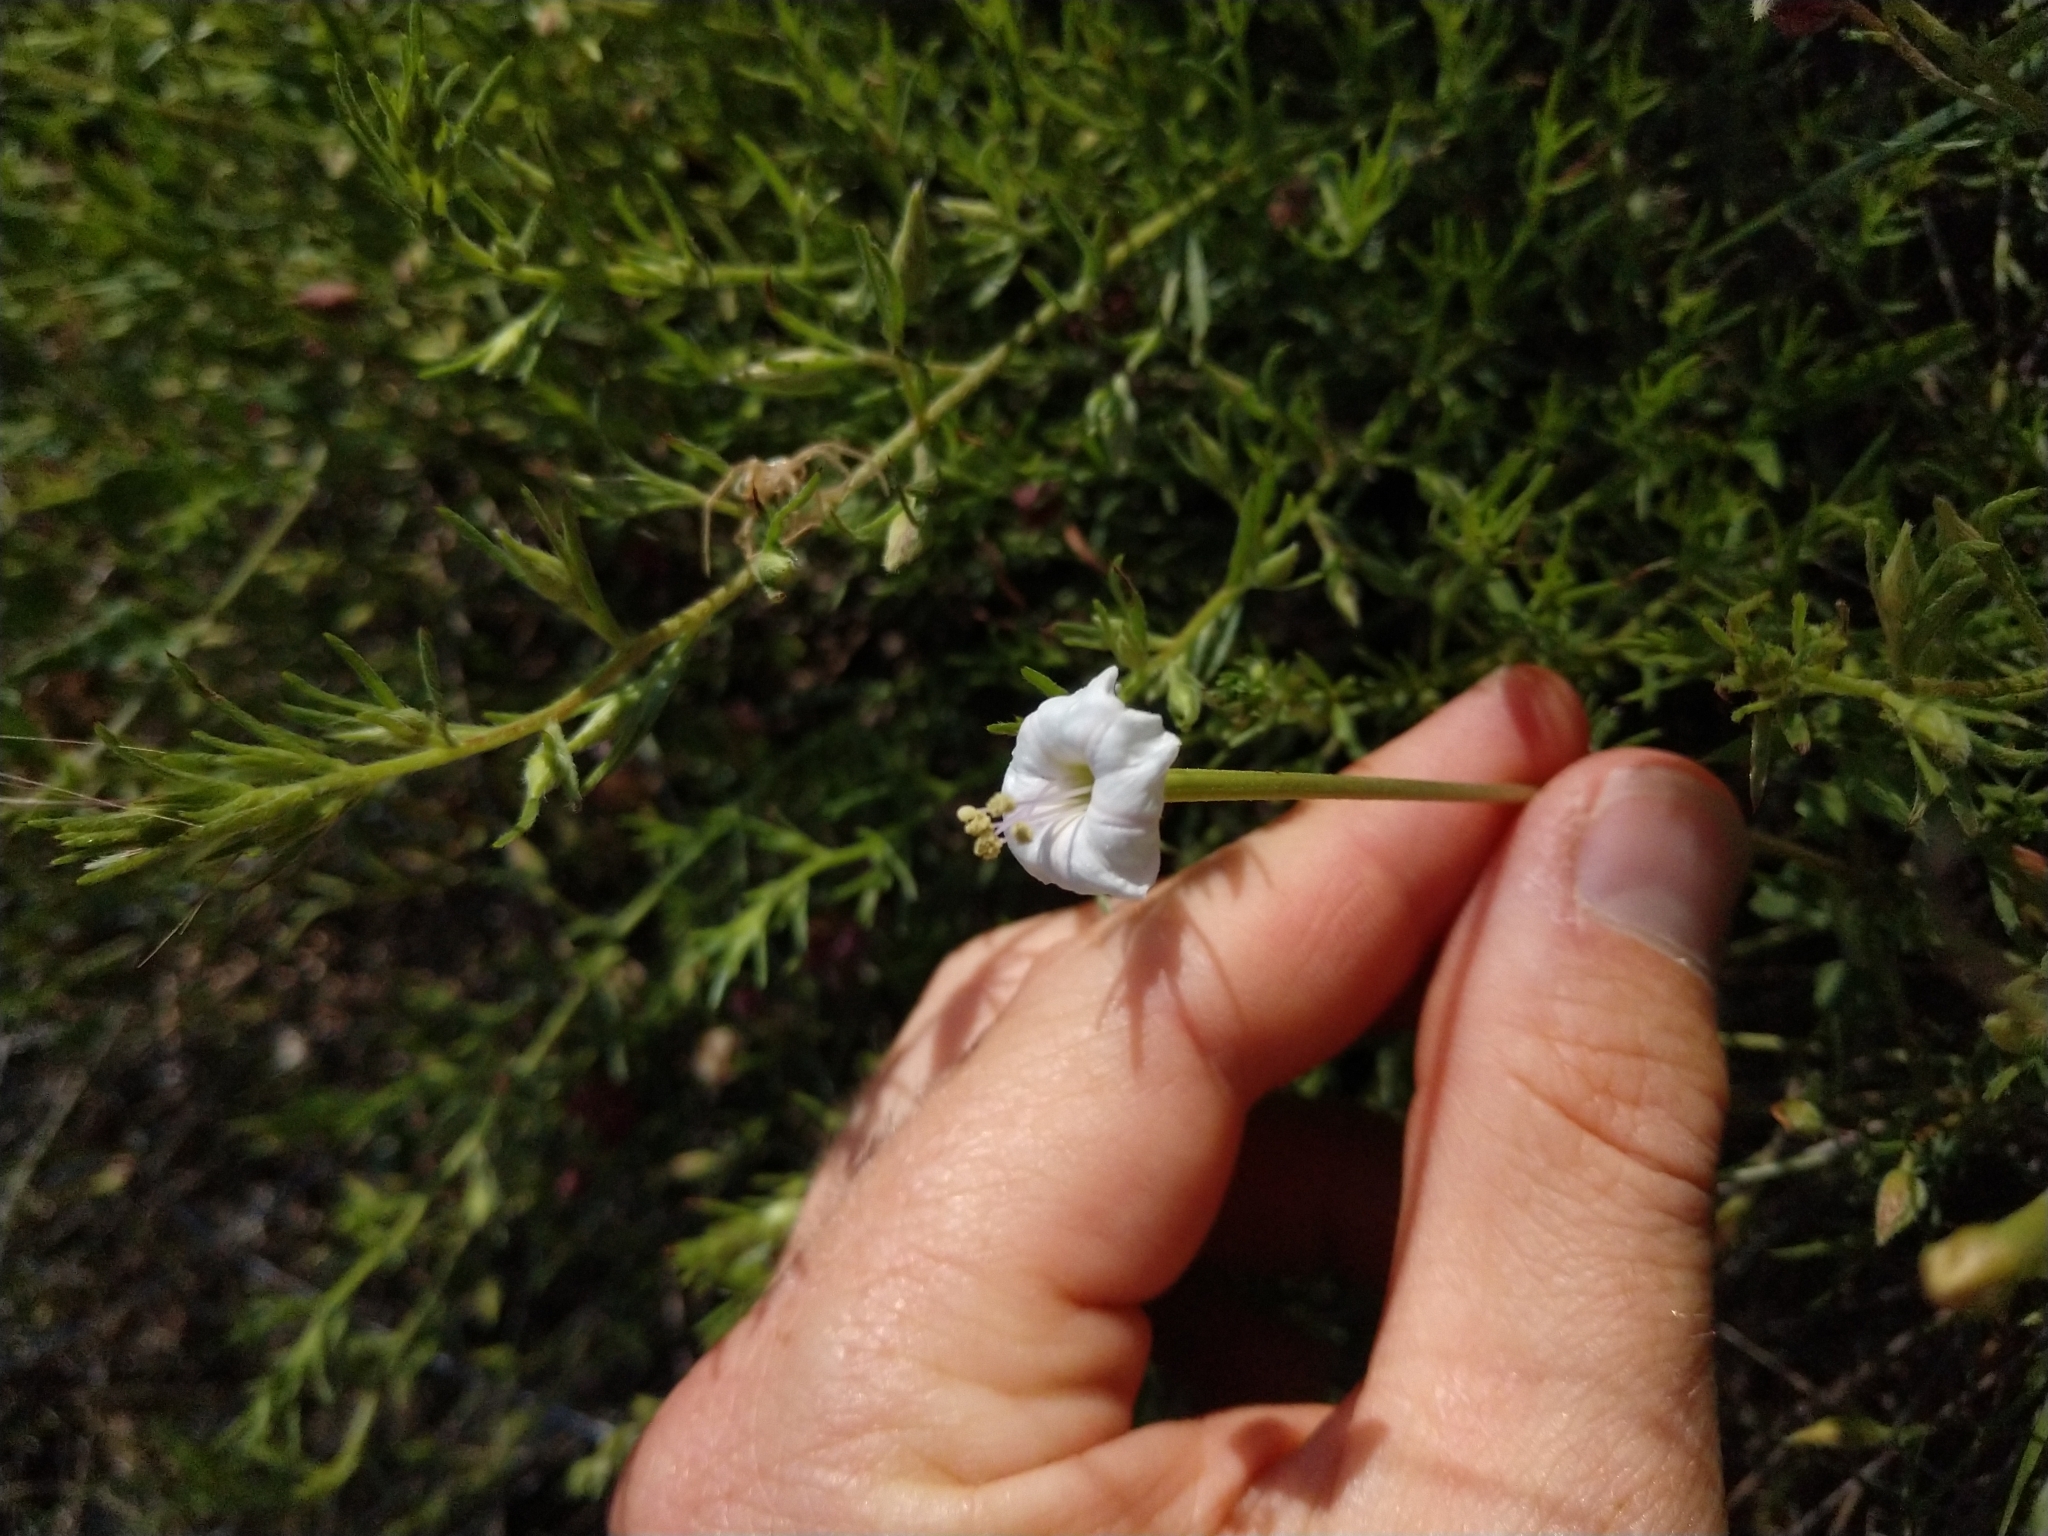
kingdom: Plantae
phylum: Tracheophyta
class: Magnoliopsida
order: Caryophyllales
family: Nyctaginaceae
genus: Acleisanthes
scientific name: Acleisanthes longiflora
